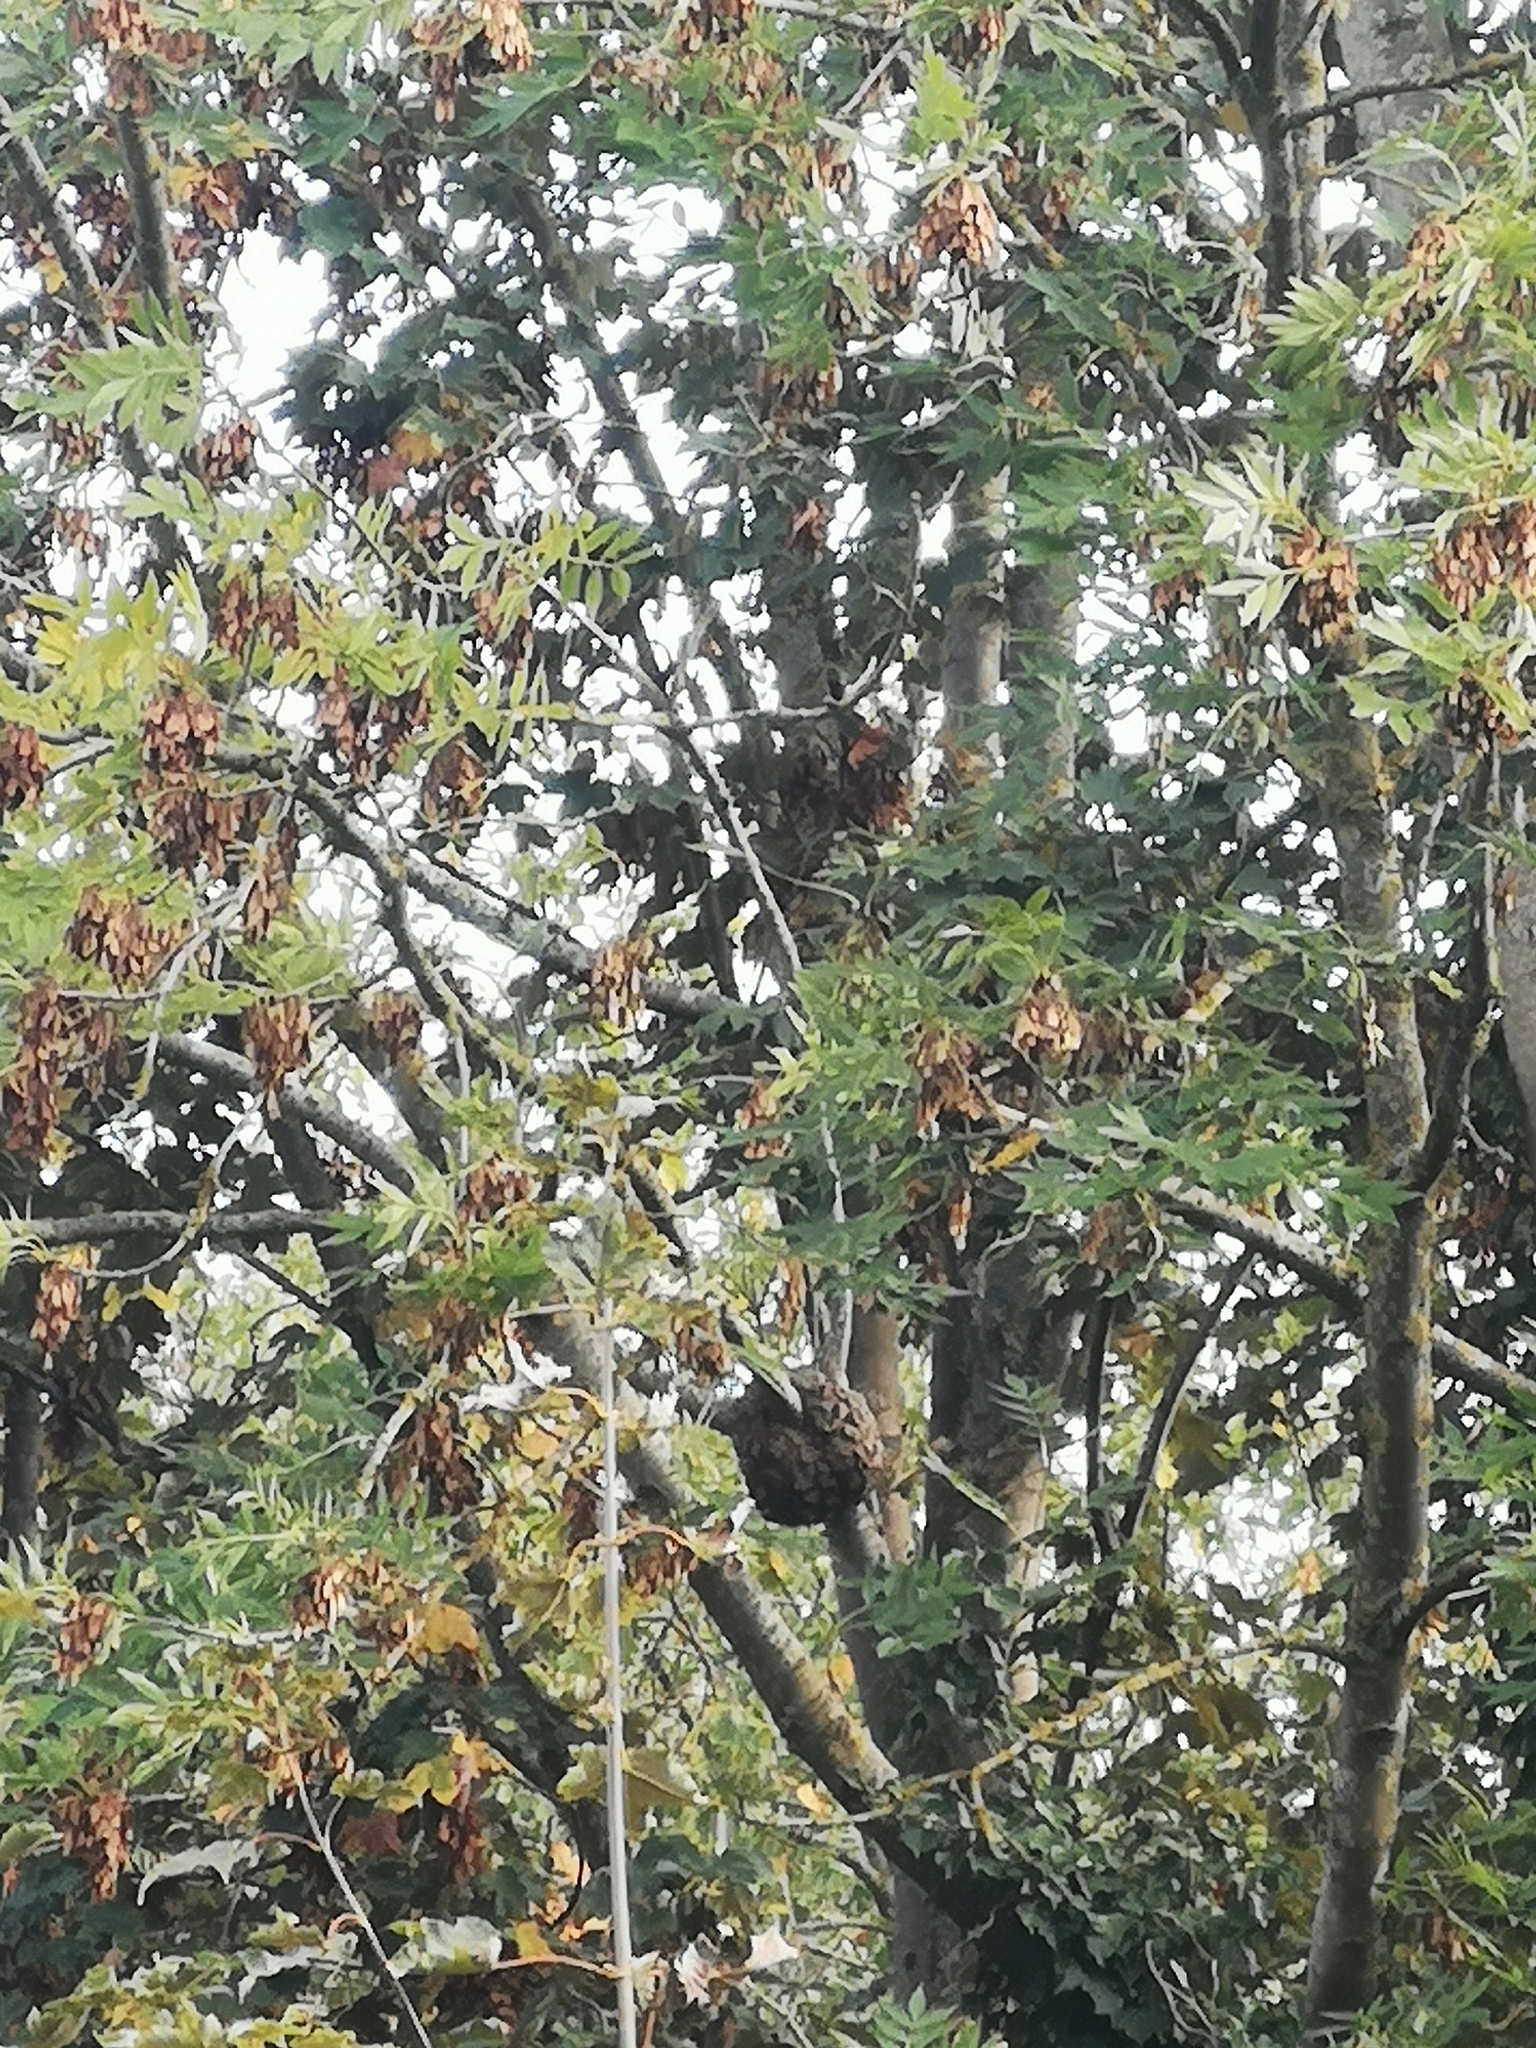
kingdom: Plantae
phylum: Tracheophyta
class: Magnoliopsida
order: Lamiales
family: Oleaceae
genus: Fraxinus
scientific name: Fraxinus excelsior
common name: European ash
